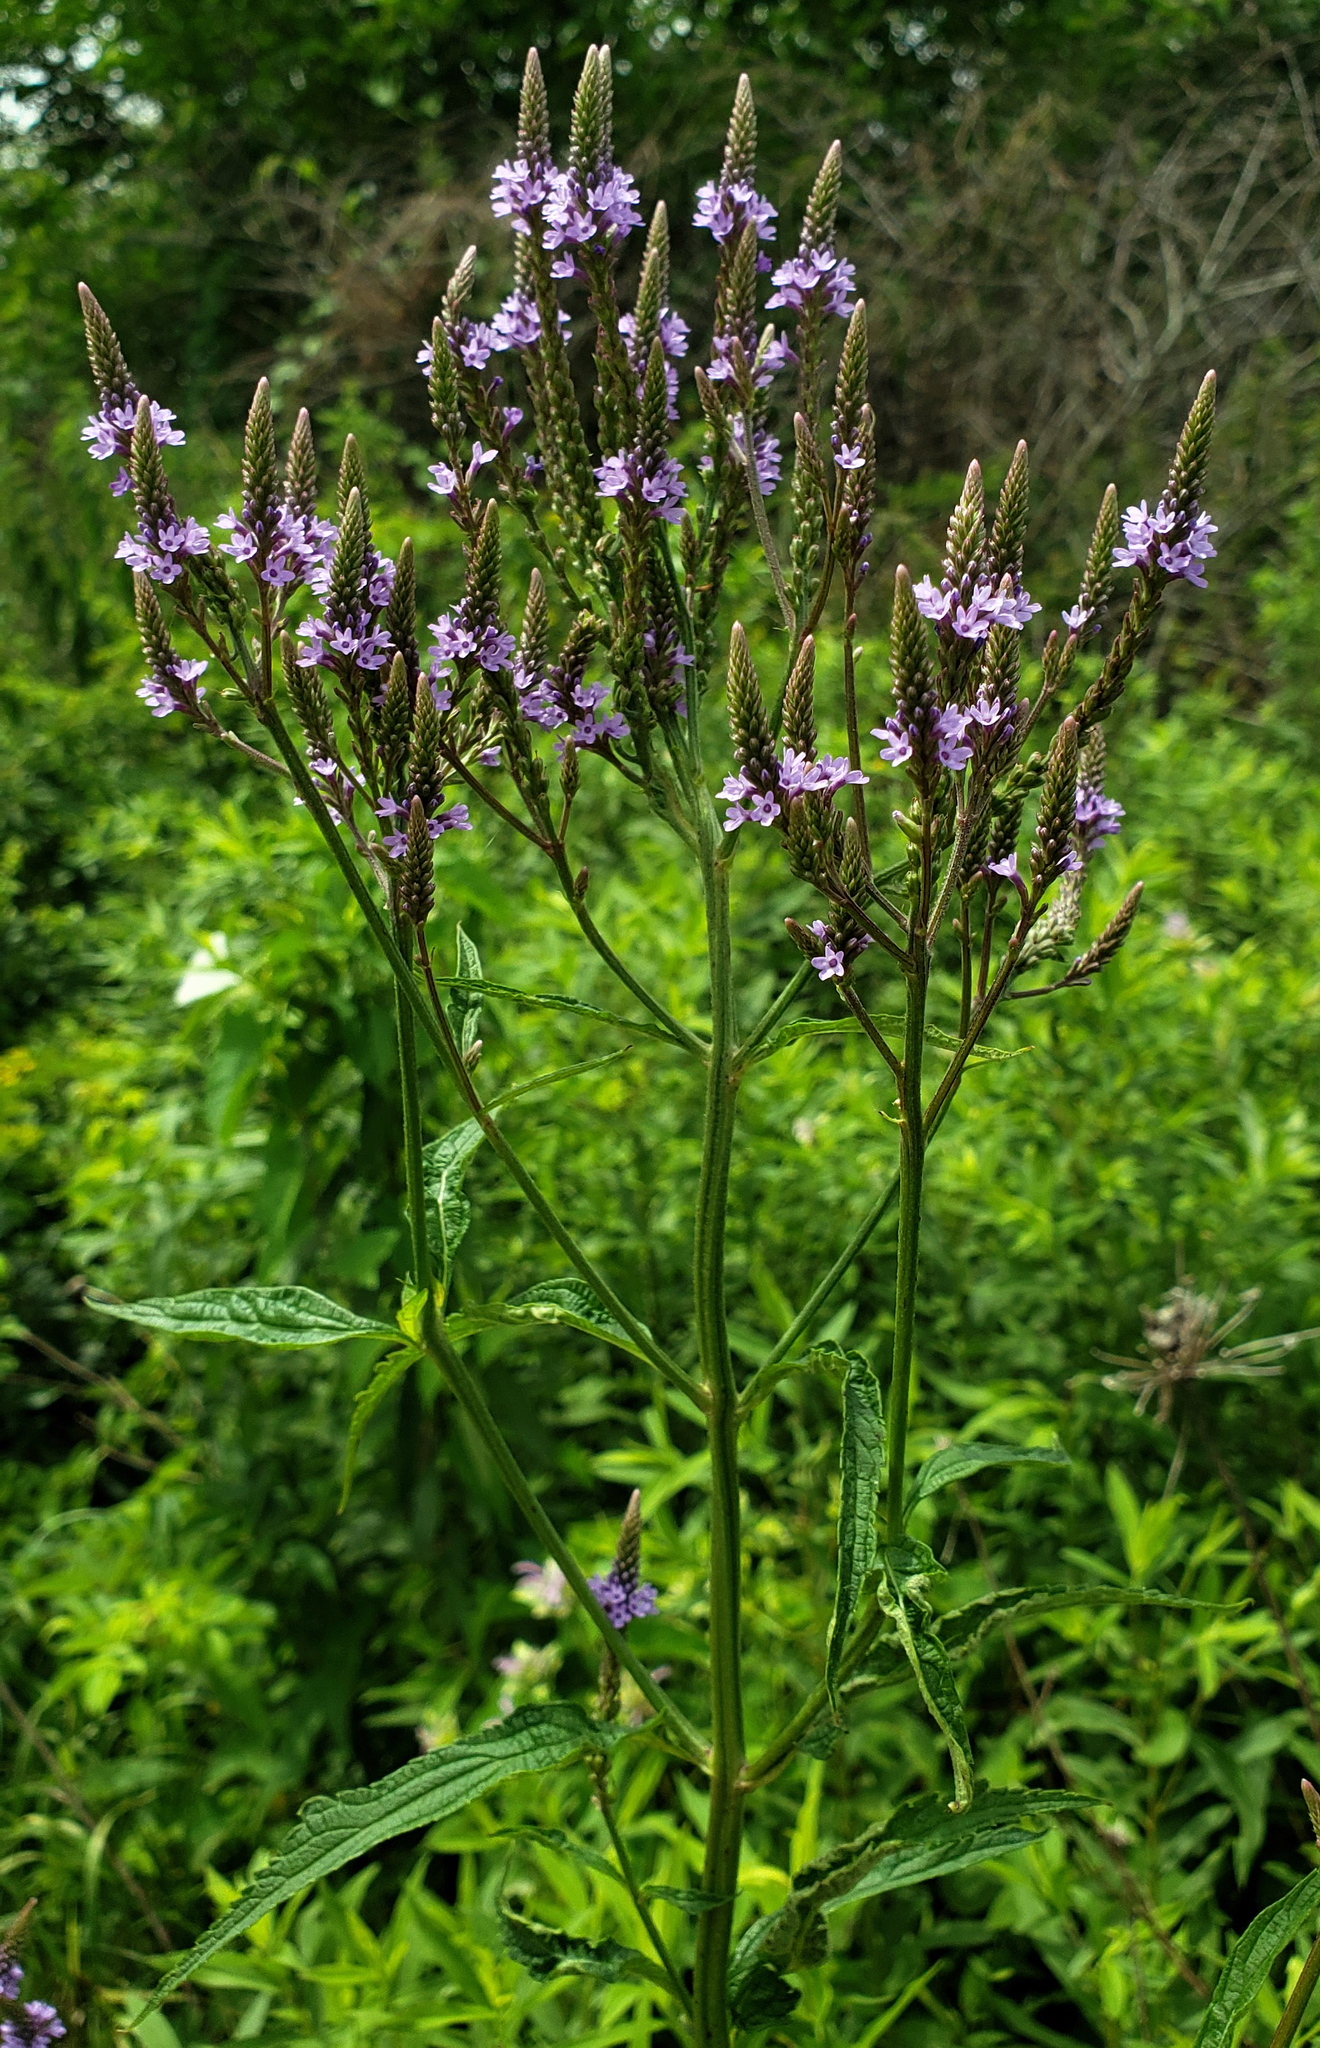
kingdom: Plantae
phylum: Tracheophyta
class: Magnoliopsida
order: Lamiales
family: Verbenaceae
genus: Verbena
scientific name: Verbena hastata
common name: American blue vervain
